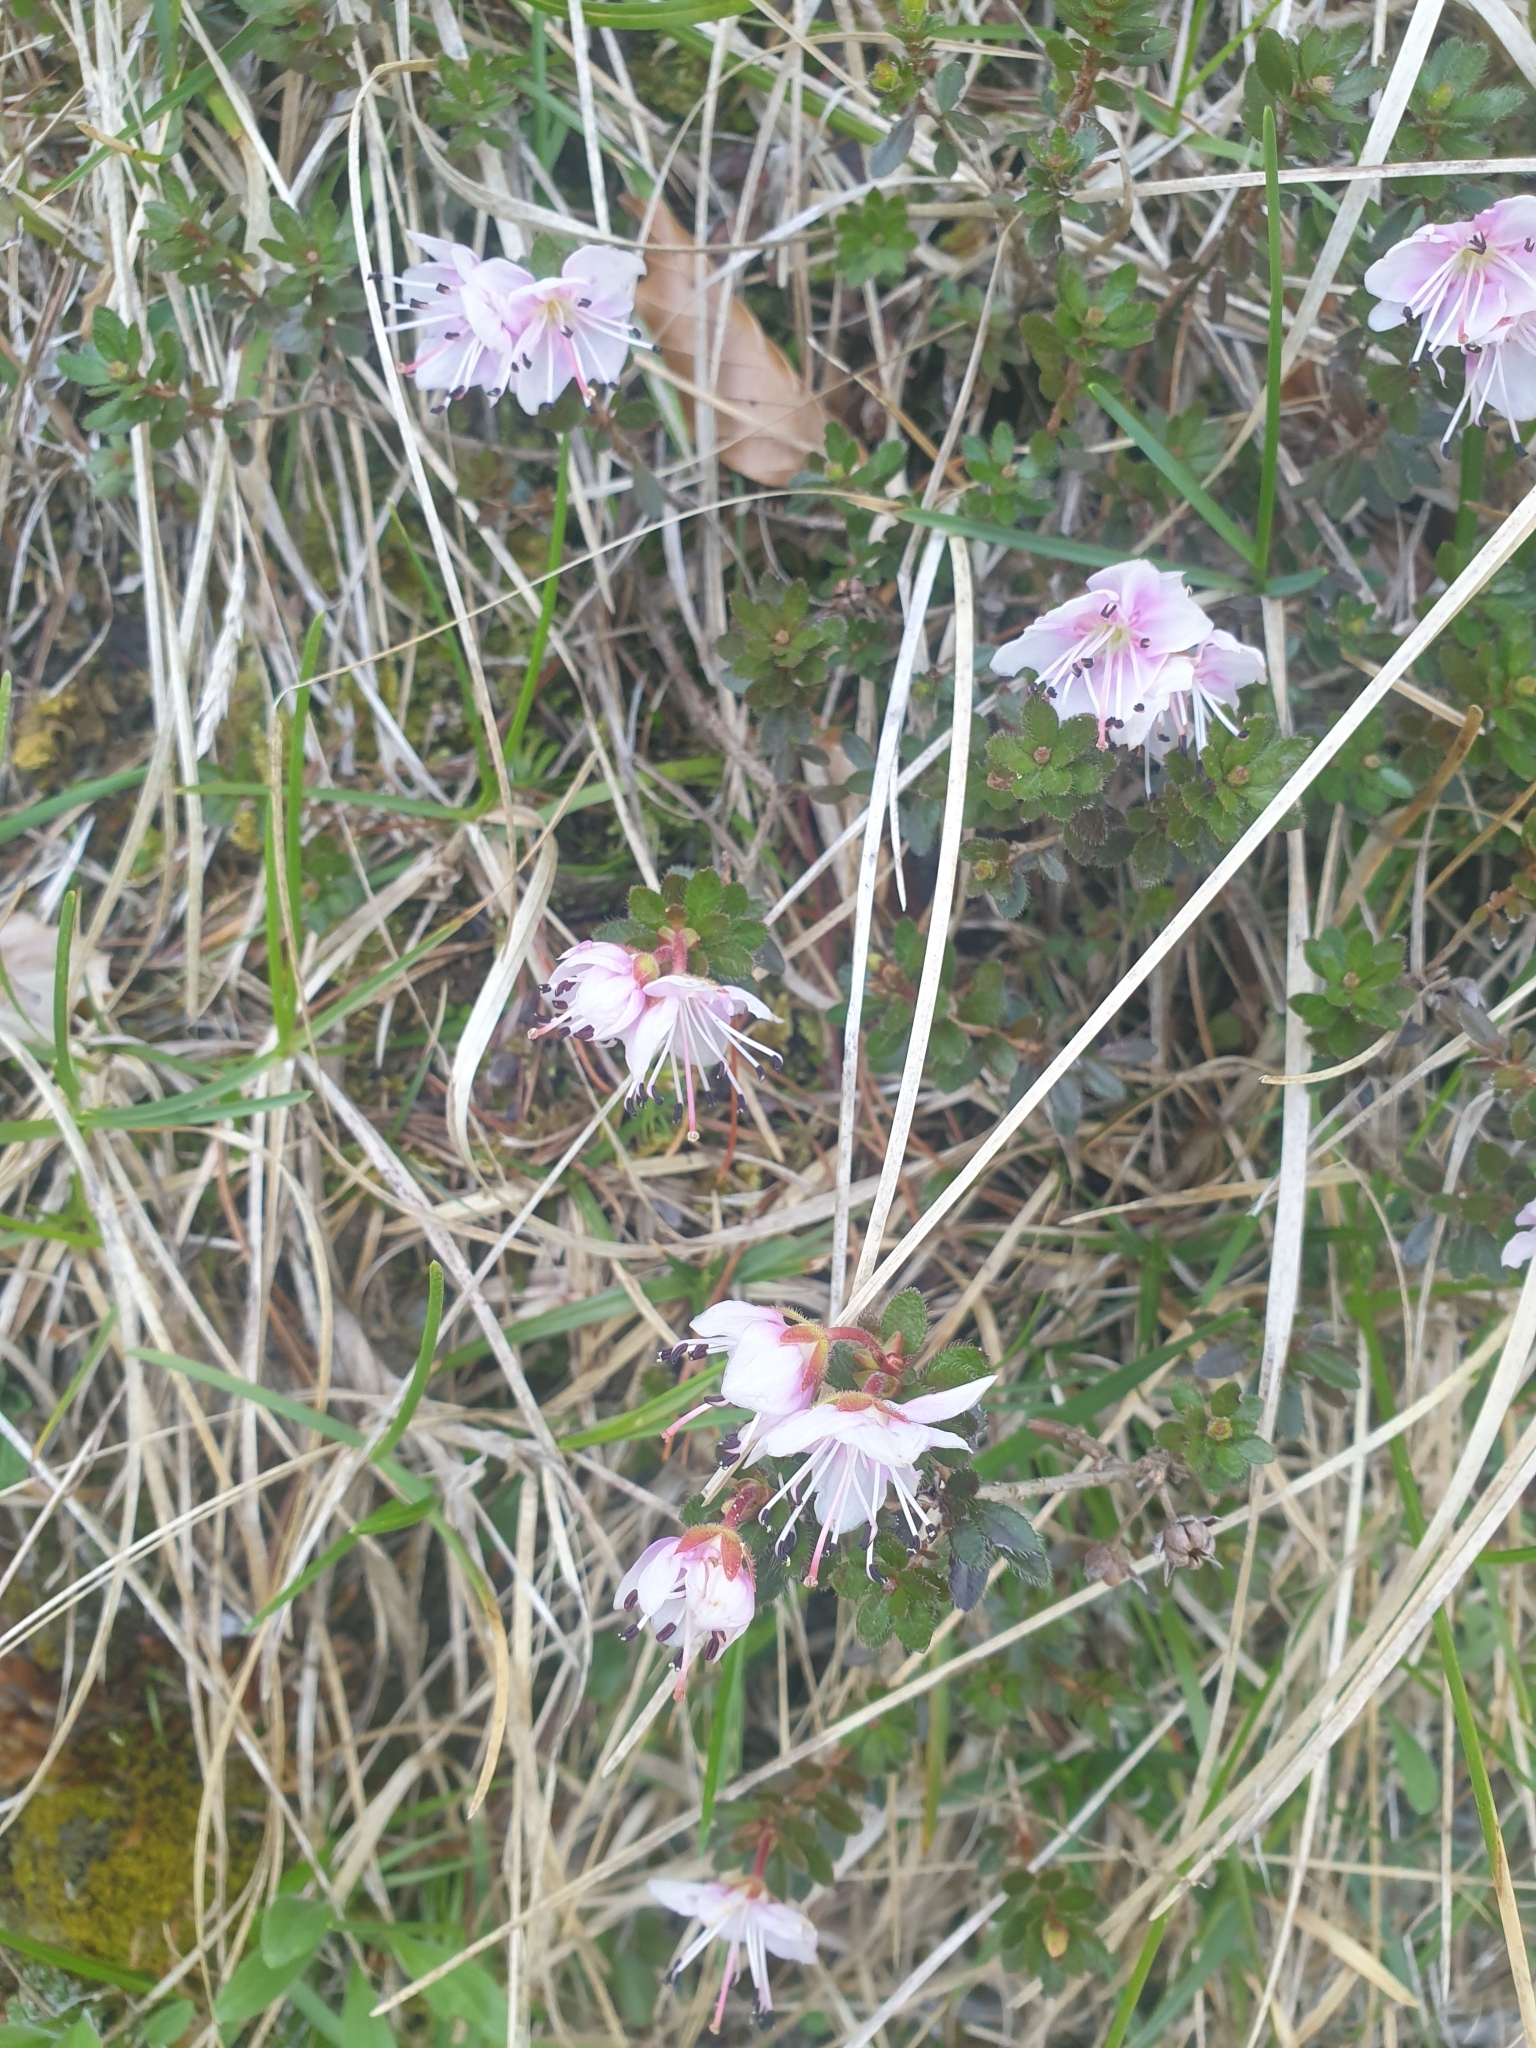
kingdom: Plantae
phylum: Tracheophyta
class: Magnoliopsida
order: Ericales
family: Ericaceae
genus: Rhodothamnus
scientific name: Rhodothamnus chamaecistus
